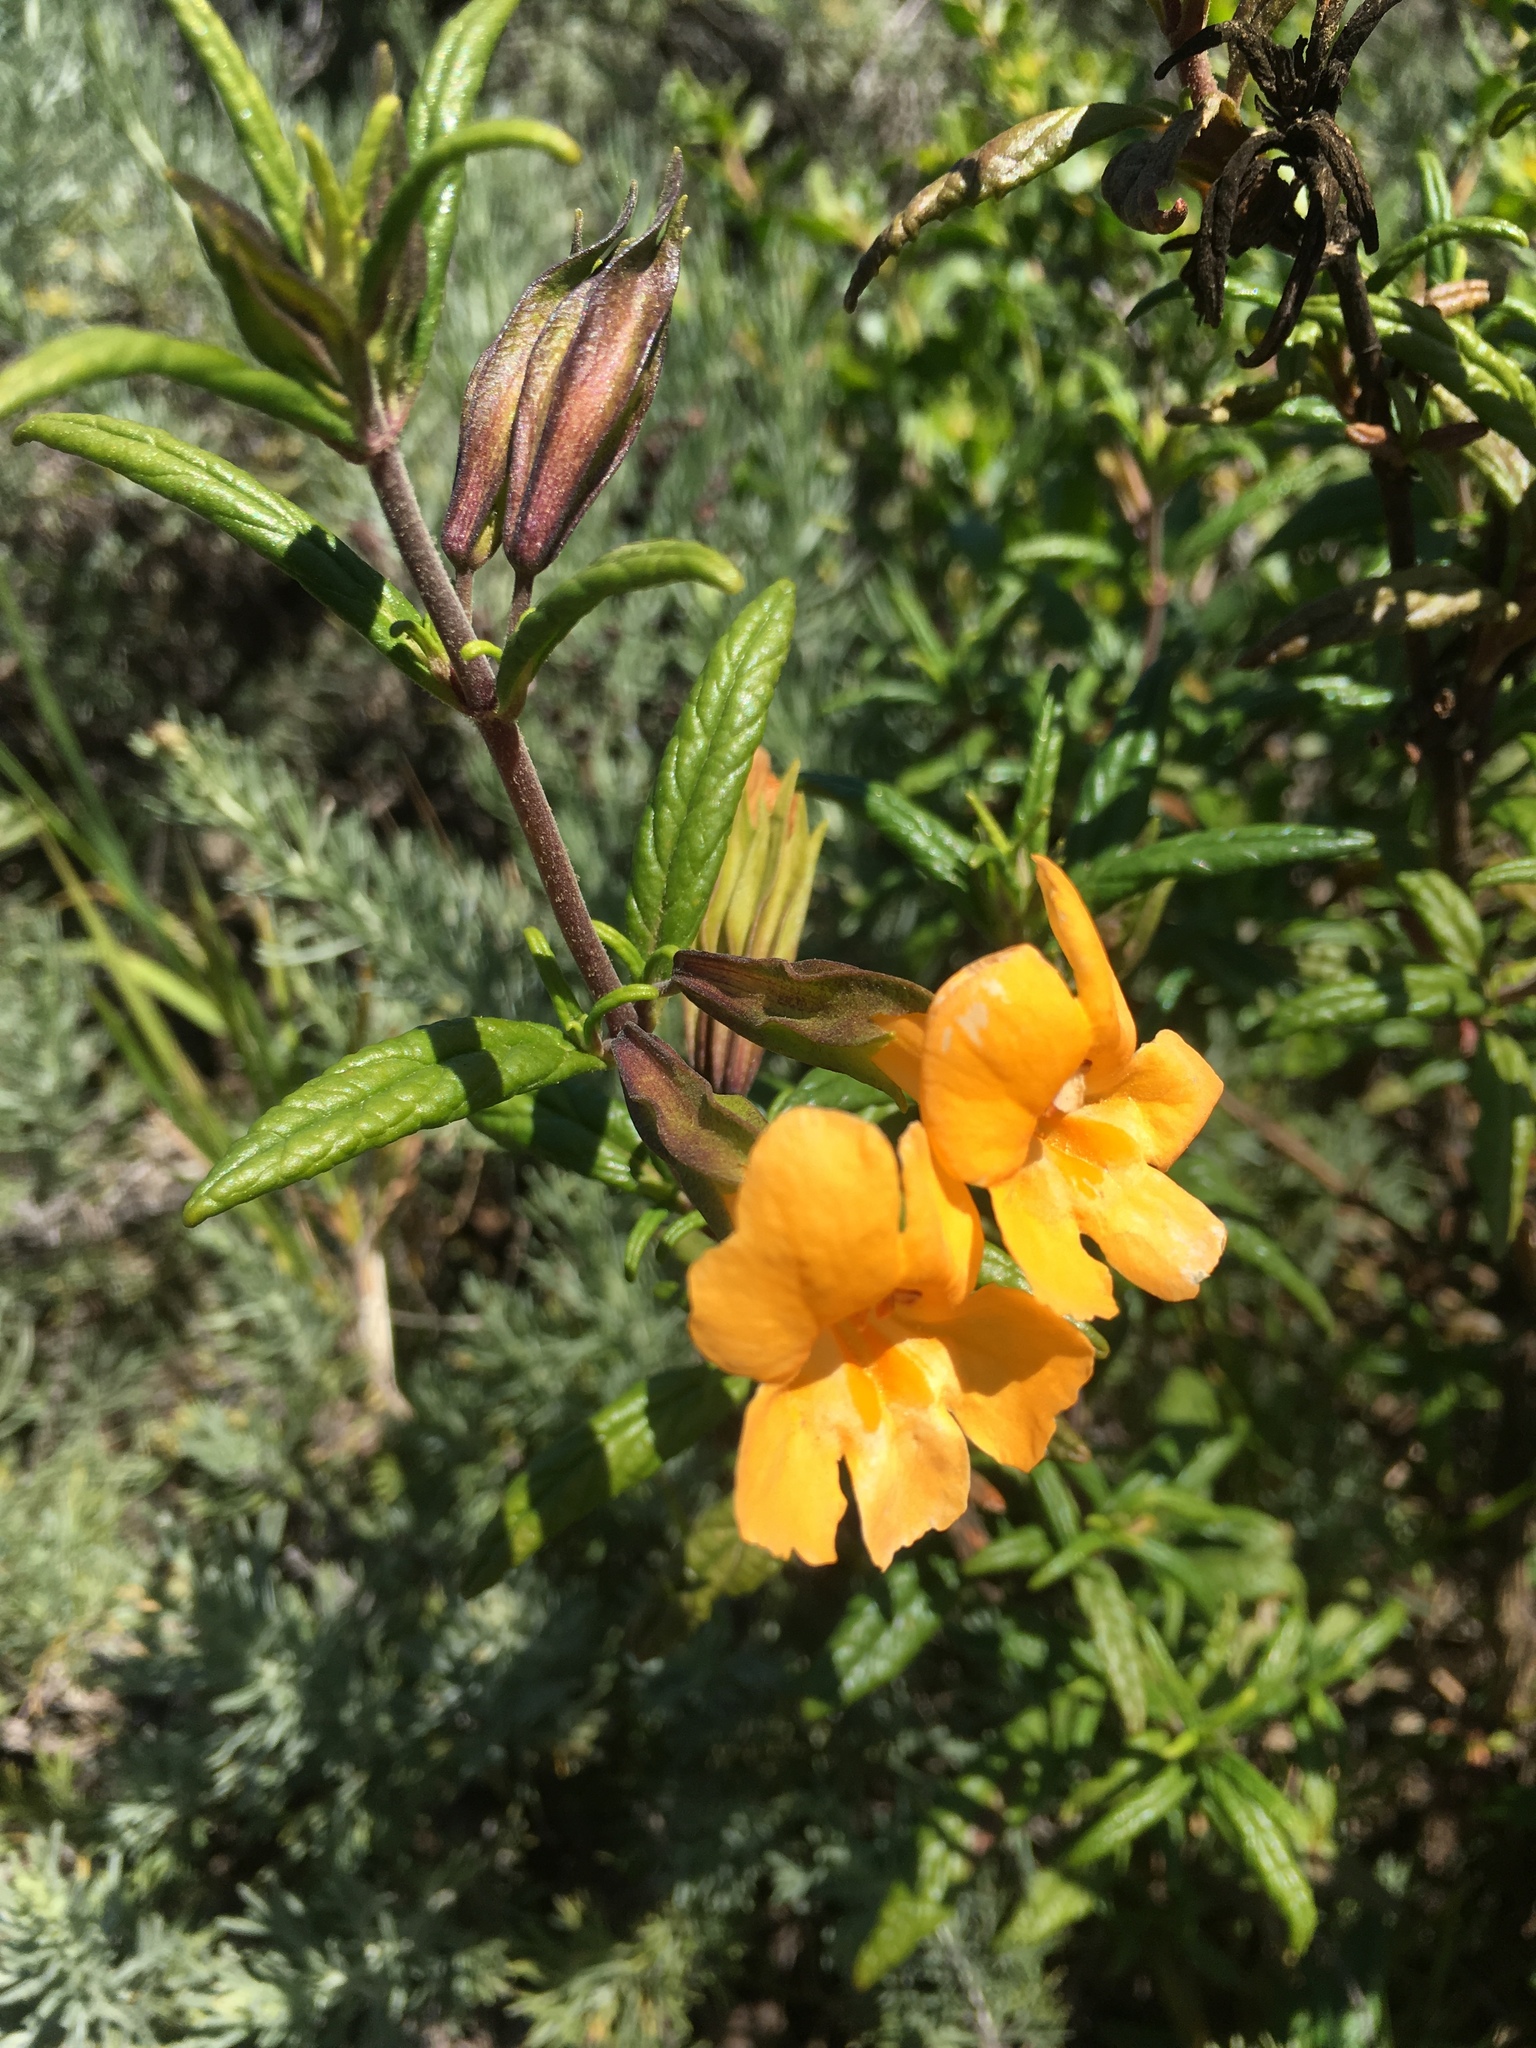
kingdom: Plantae
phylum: Tracheophyta
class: Magnoliopsida
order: Lamiales
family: Phrymaceae
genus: Diplacus
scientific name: Diplacus aurantiacus
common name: Bush monkey-flower
